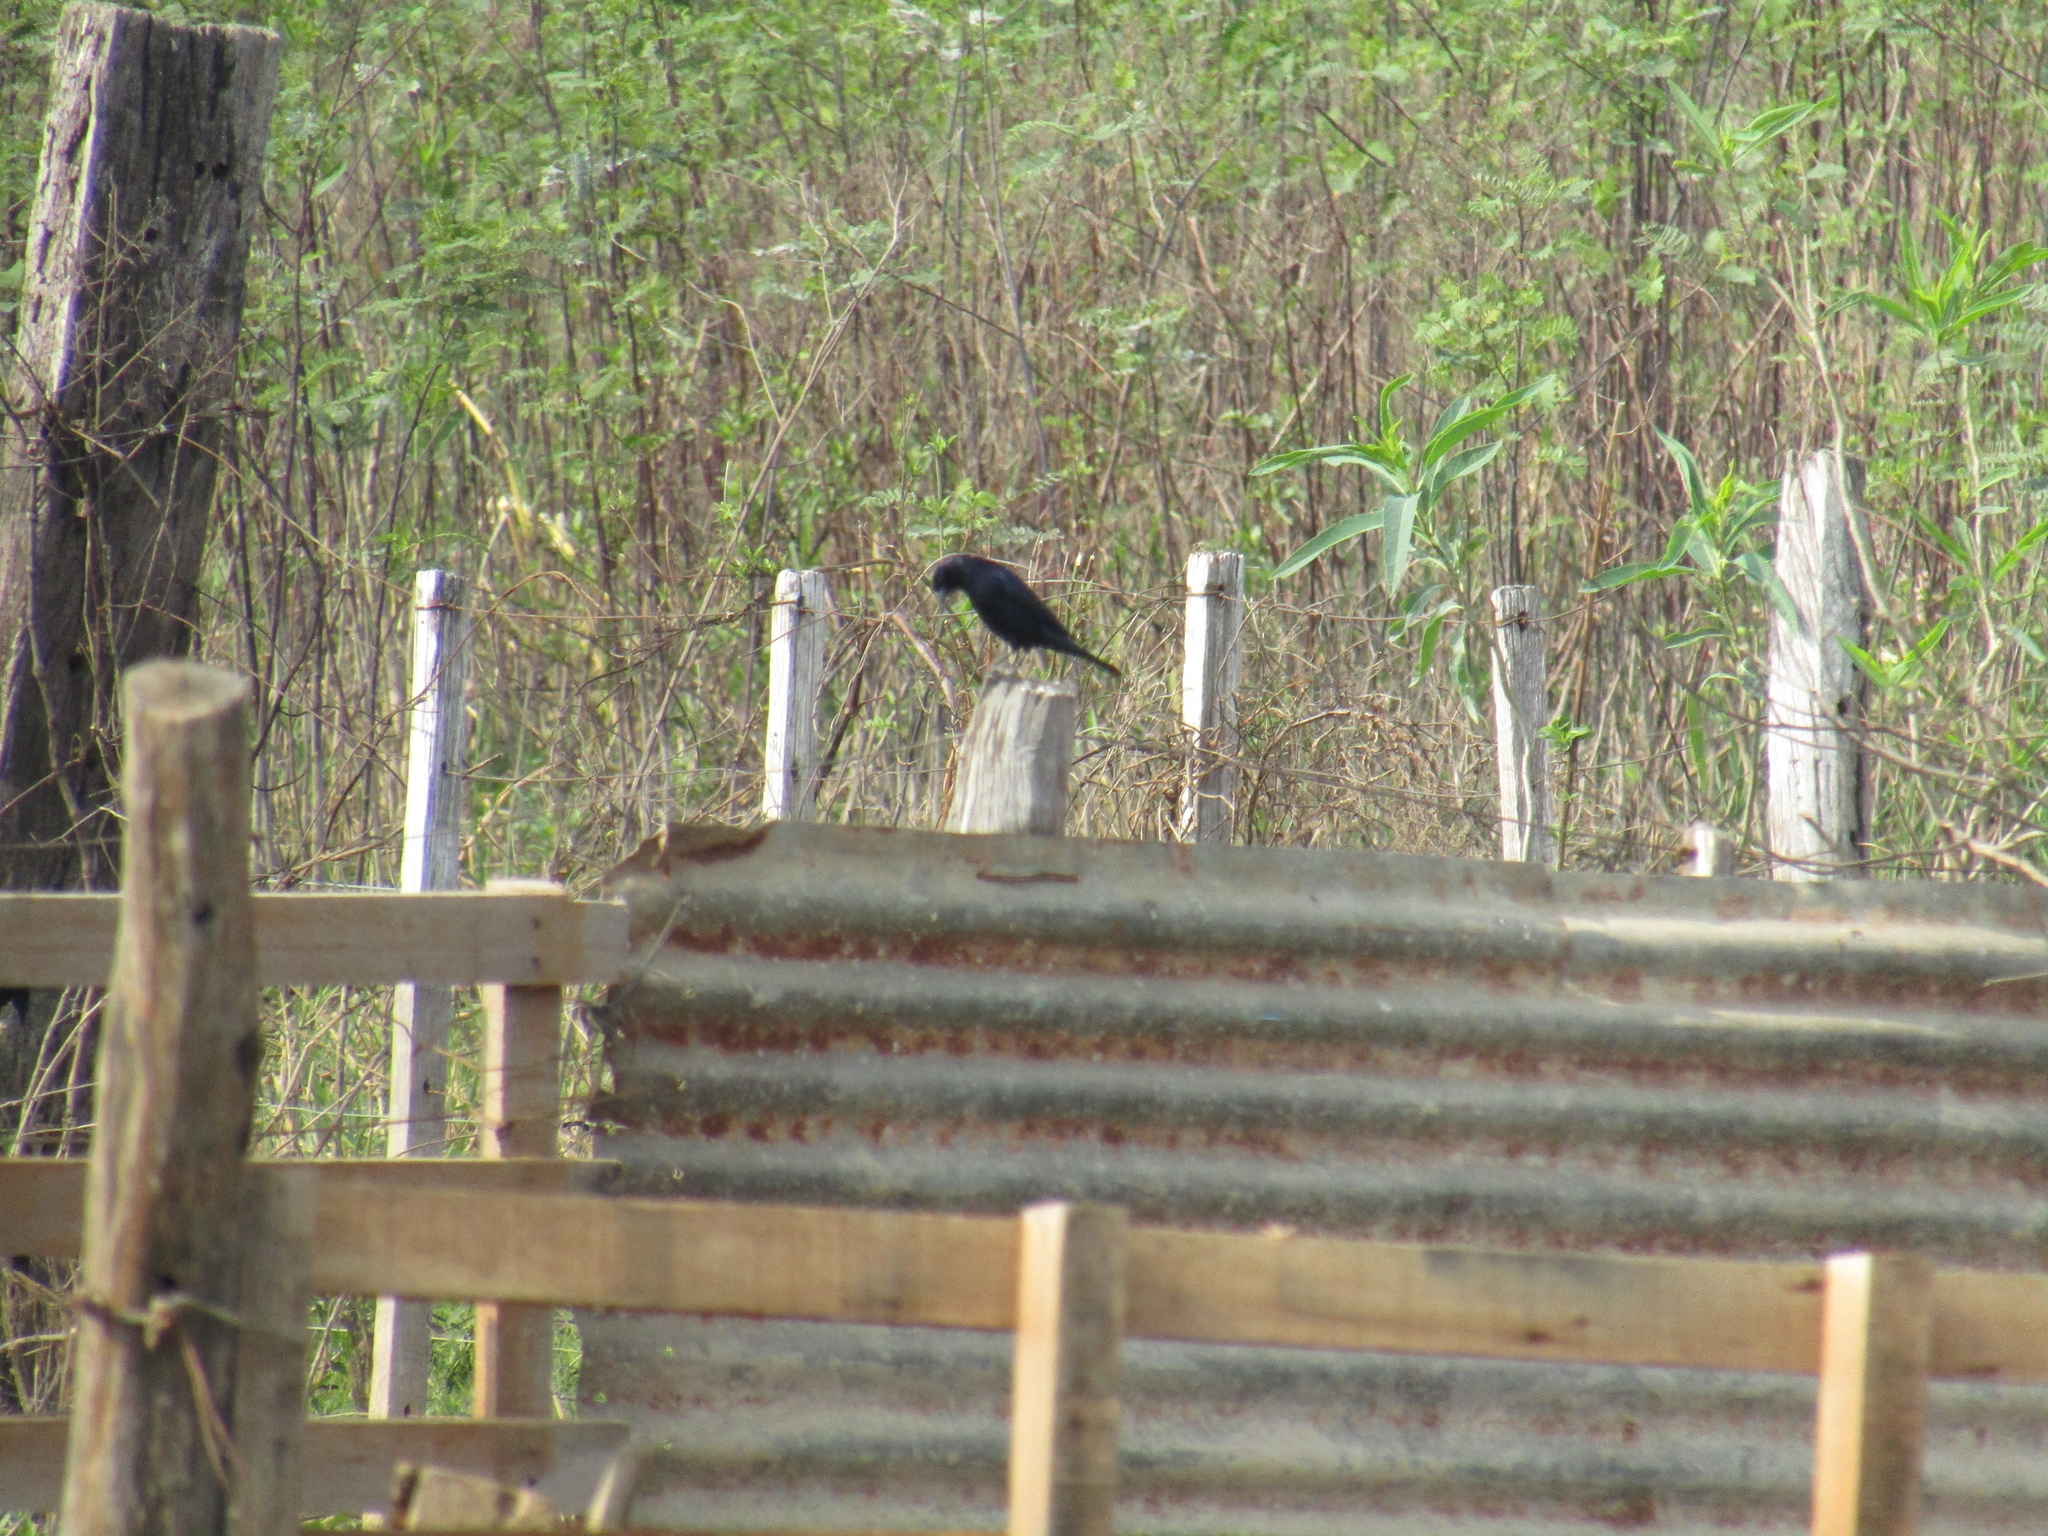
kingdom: Animalia
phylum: Chordata
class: Aves
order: Passeriformes
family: Icteridae
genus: Molothrus
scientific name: Molothrus bonariensis
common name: Shiny cowbird
